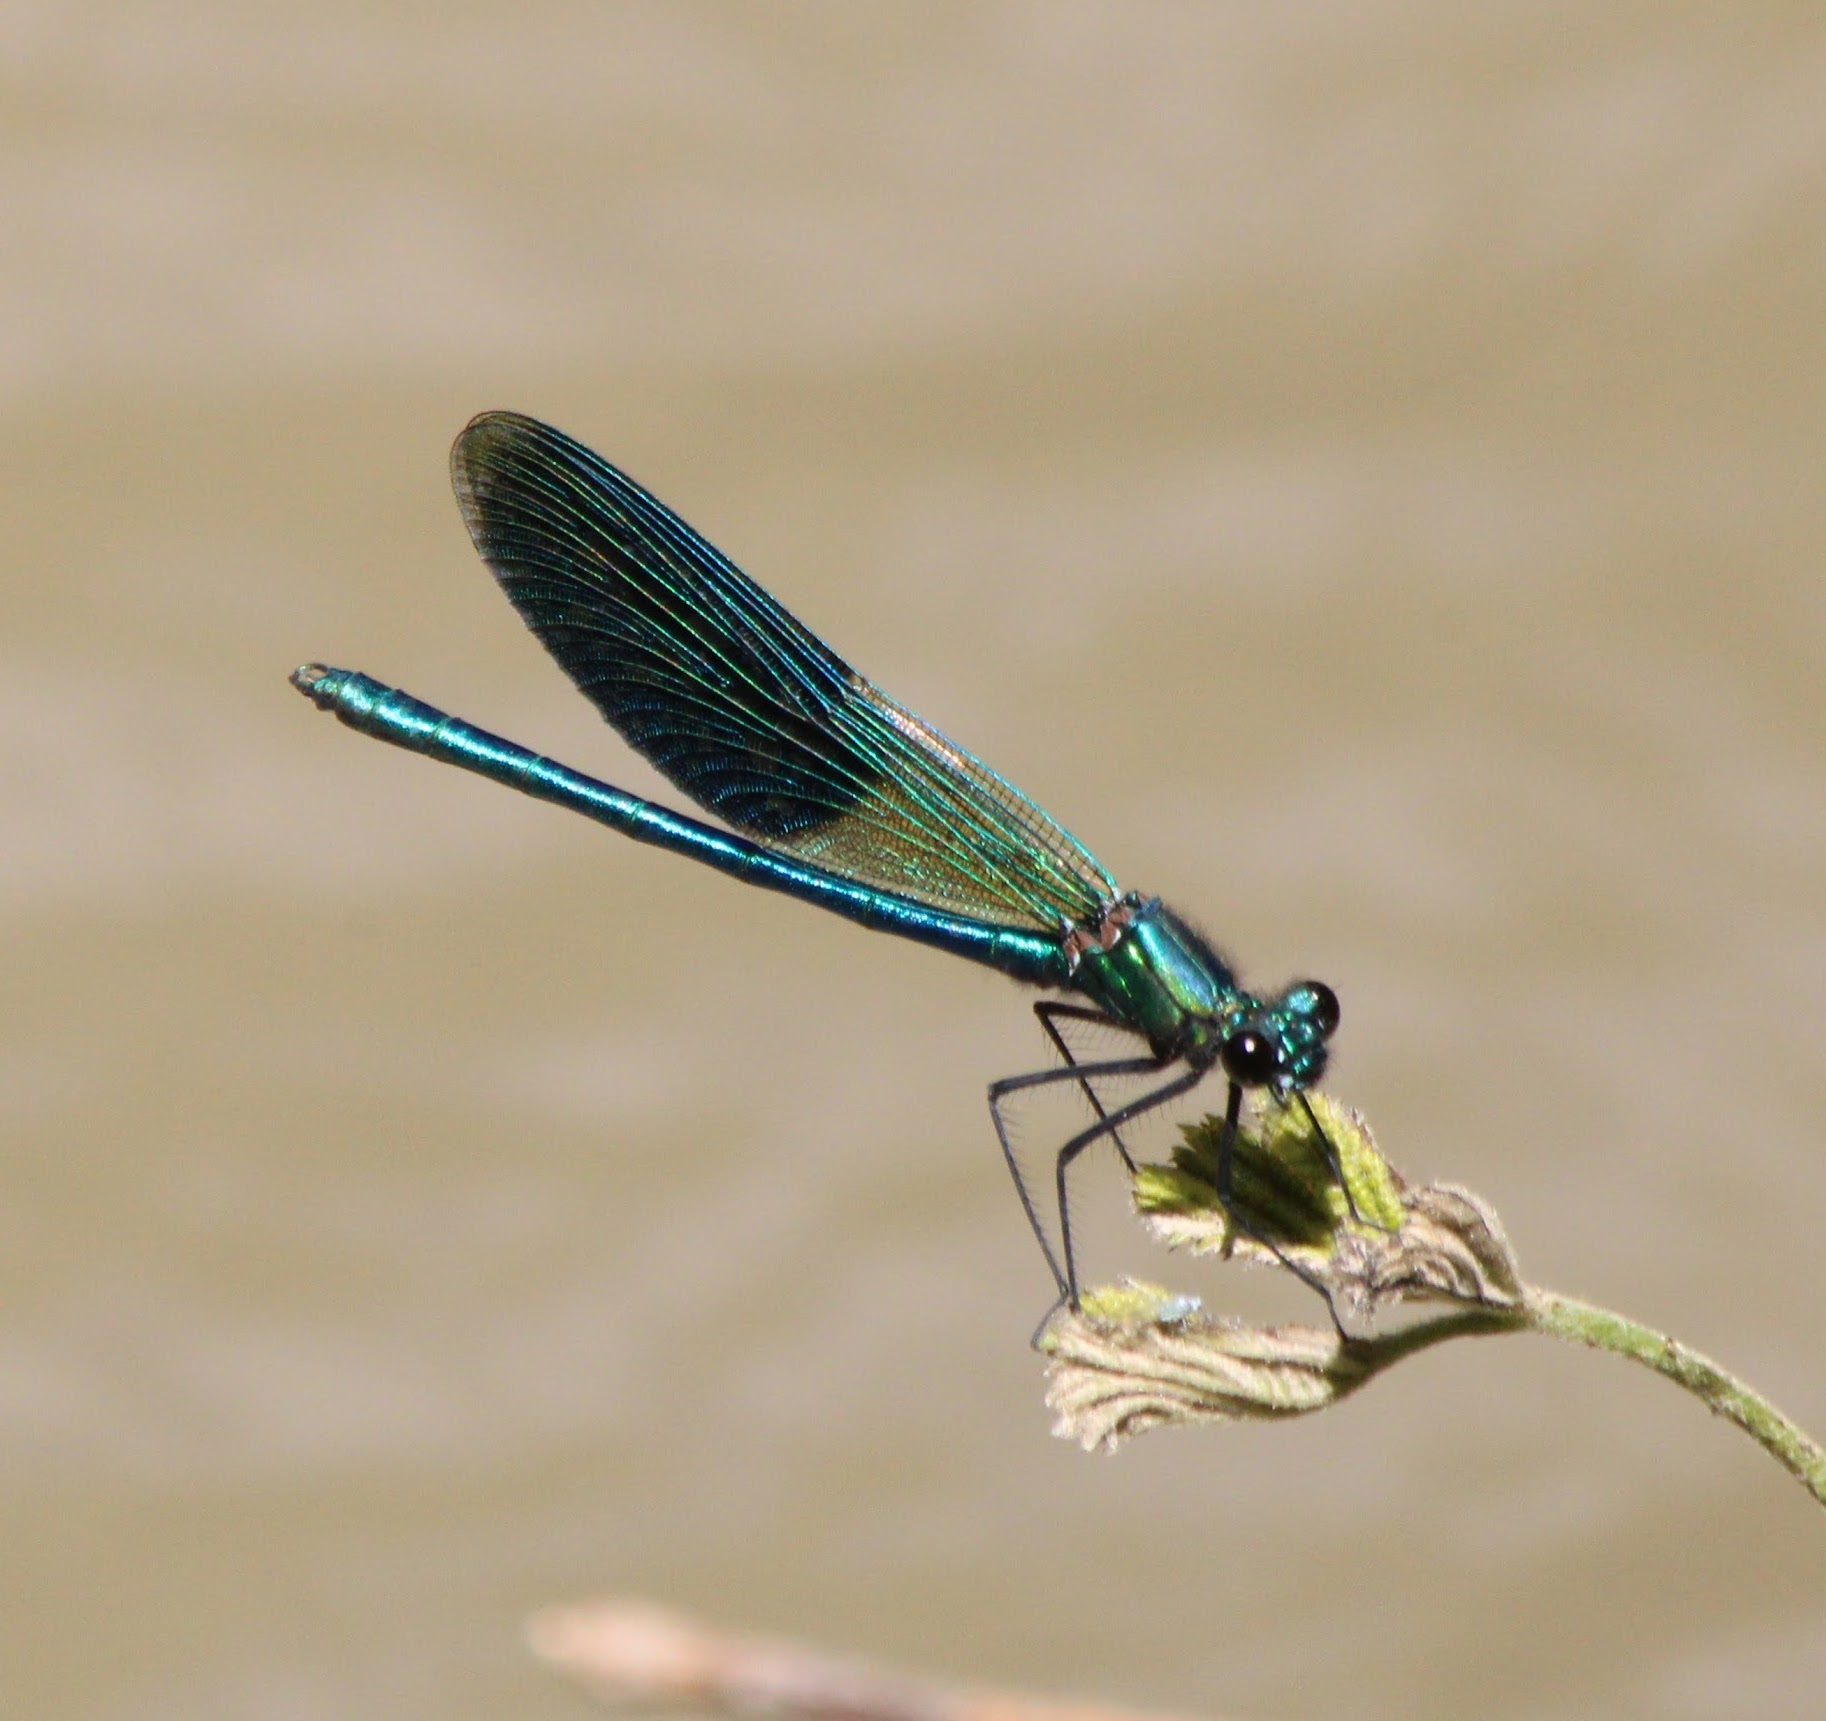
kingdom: Animalia
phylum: Arthropoda
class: Insecta
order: Odonata
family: Calopterygidae
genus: Calopteryx
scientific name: Calopteryx splendens
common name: Banded demoiselle
